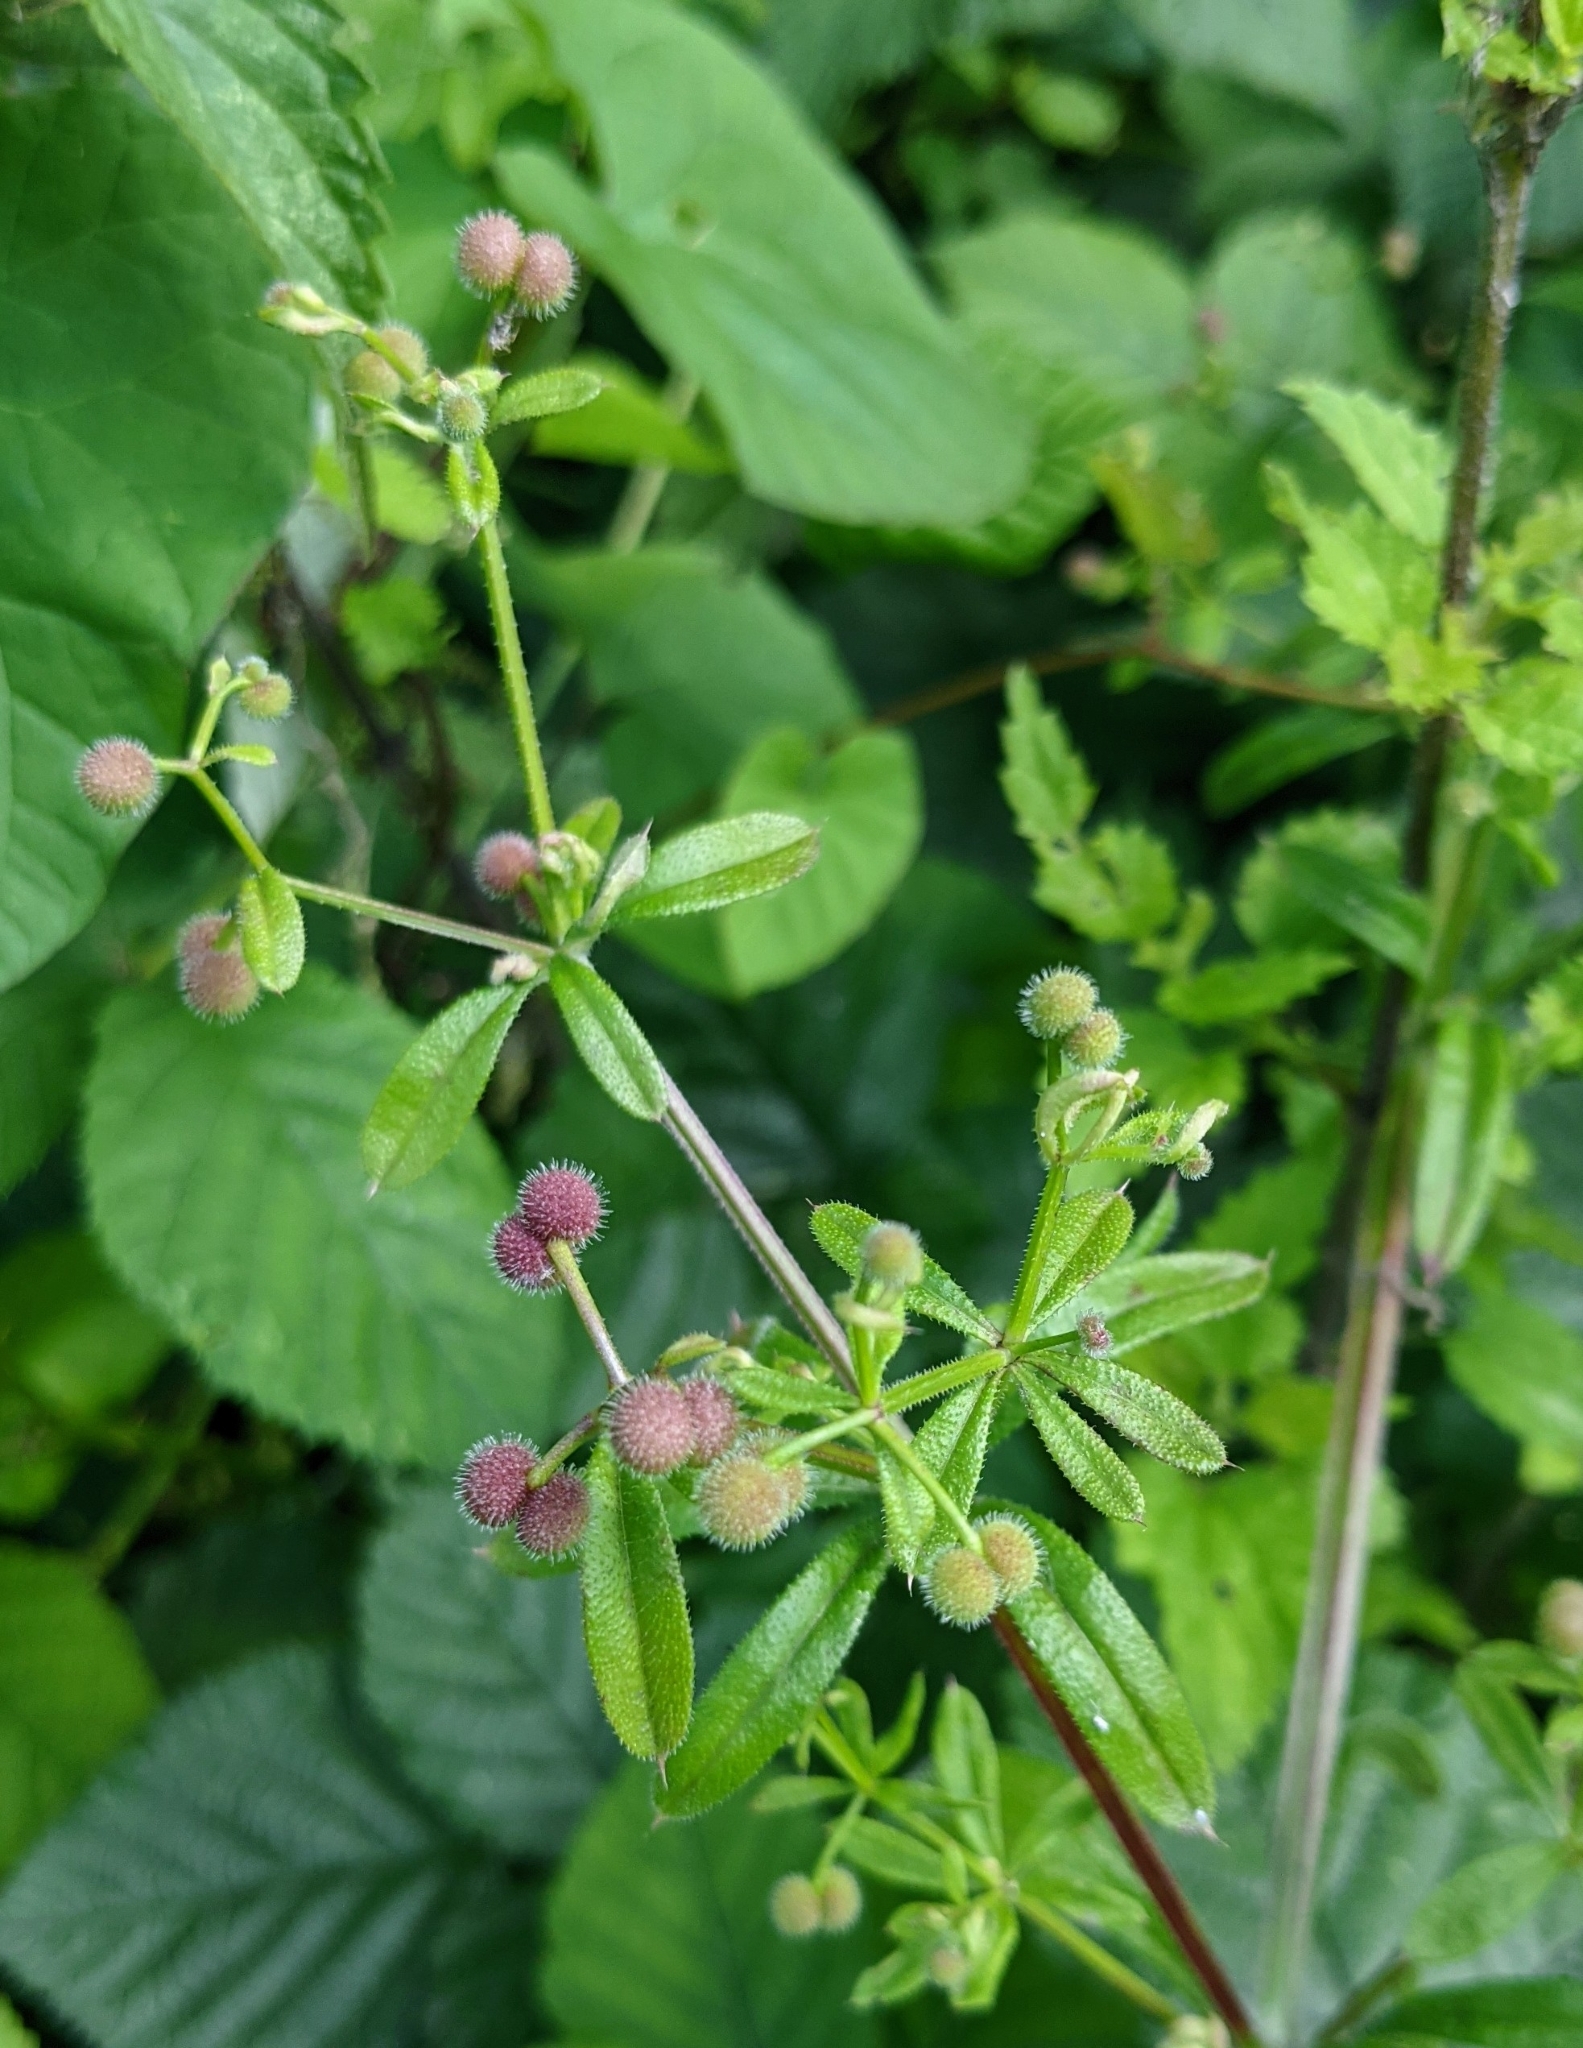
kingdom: Plantae
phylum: Tracheophyta
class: Magnoliopsida
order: Gentianales
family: Rubiaceae
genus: Galium
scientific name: Galium aparine
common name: Cleavers
